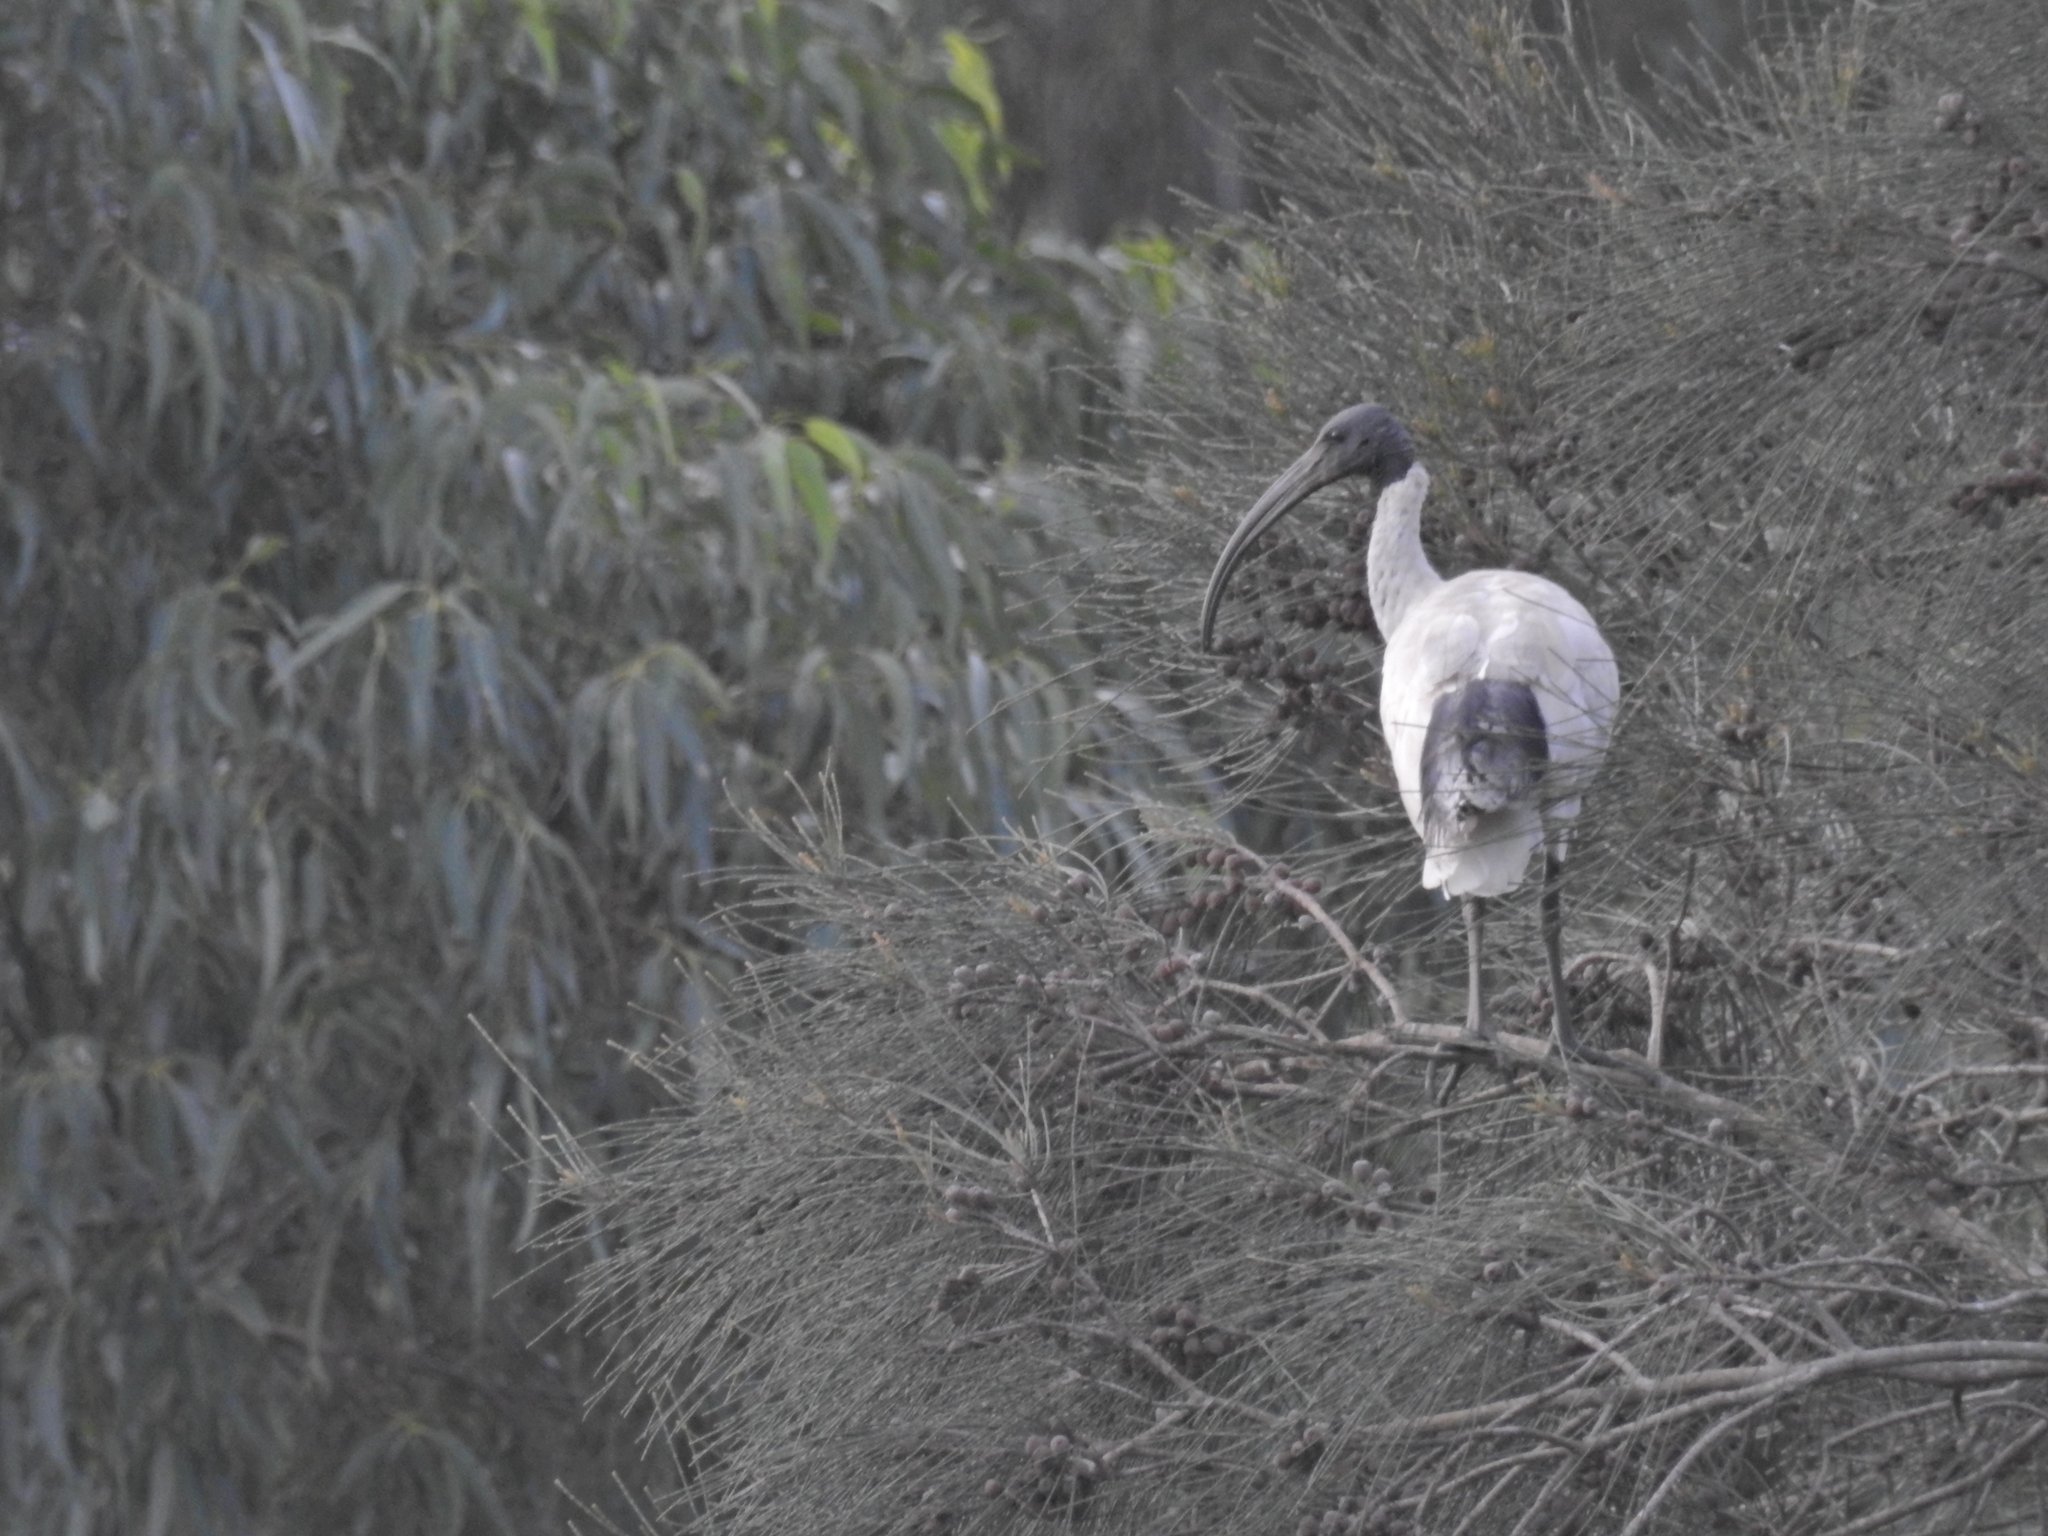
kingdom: Animalia
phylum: Chordata
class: Aves
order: Pelecaniformes
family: Threskiornithidae
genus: Threskiornis
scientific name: Threskiornis molucca
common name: Australian white ibis
